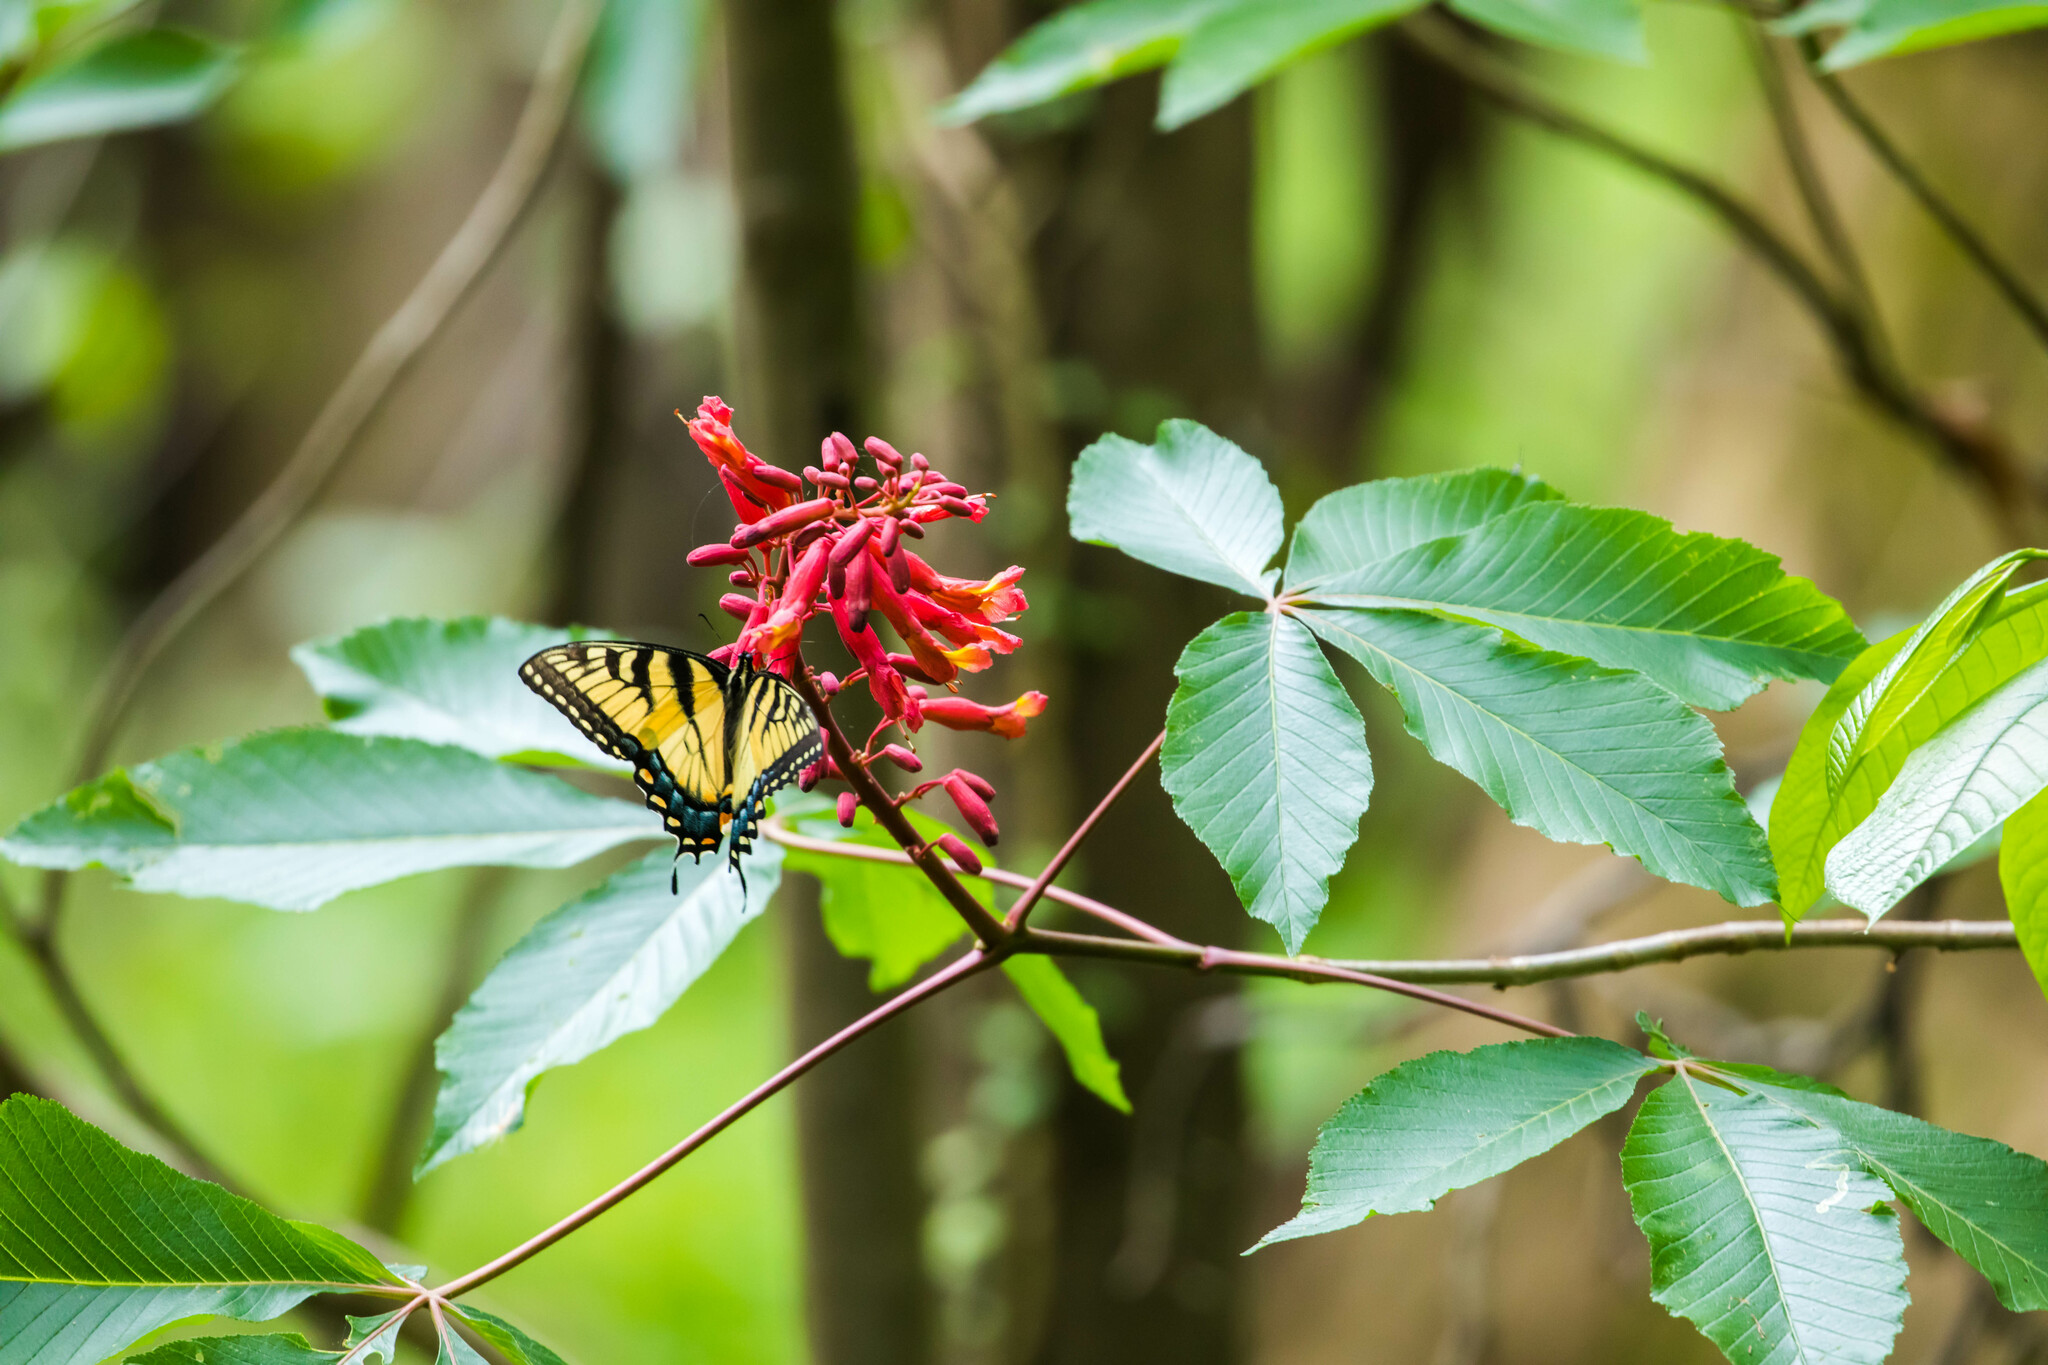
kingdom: Animalia
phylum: Arthropoda
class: Insecta
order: Lepidoptera
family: Papilionidae
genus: Papilio
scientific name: Papilio glaucus
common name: Tiger swallowtail
